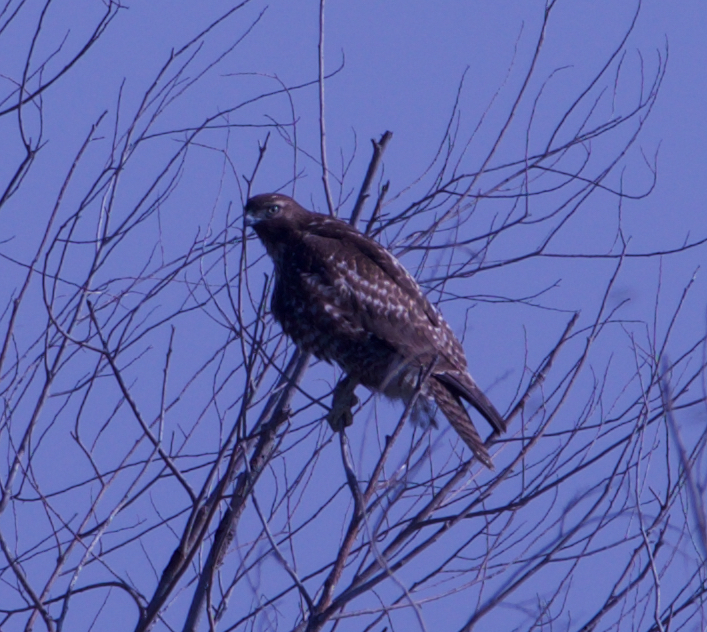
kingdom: Animalia
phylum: Chordata
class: Aves
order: Accipitriformes
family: Accipitridae
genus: Buteo
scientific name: Buteo jamaicensis
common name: Red-tailed hawk
